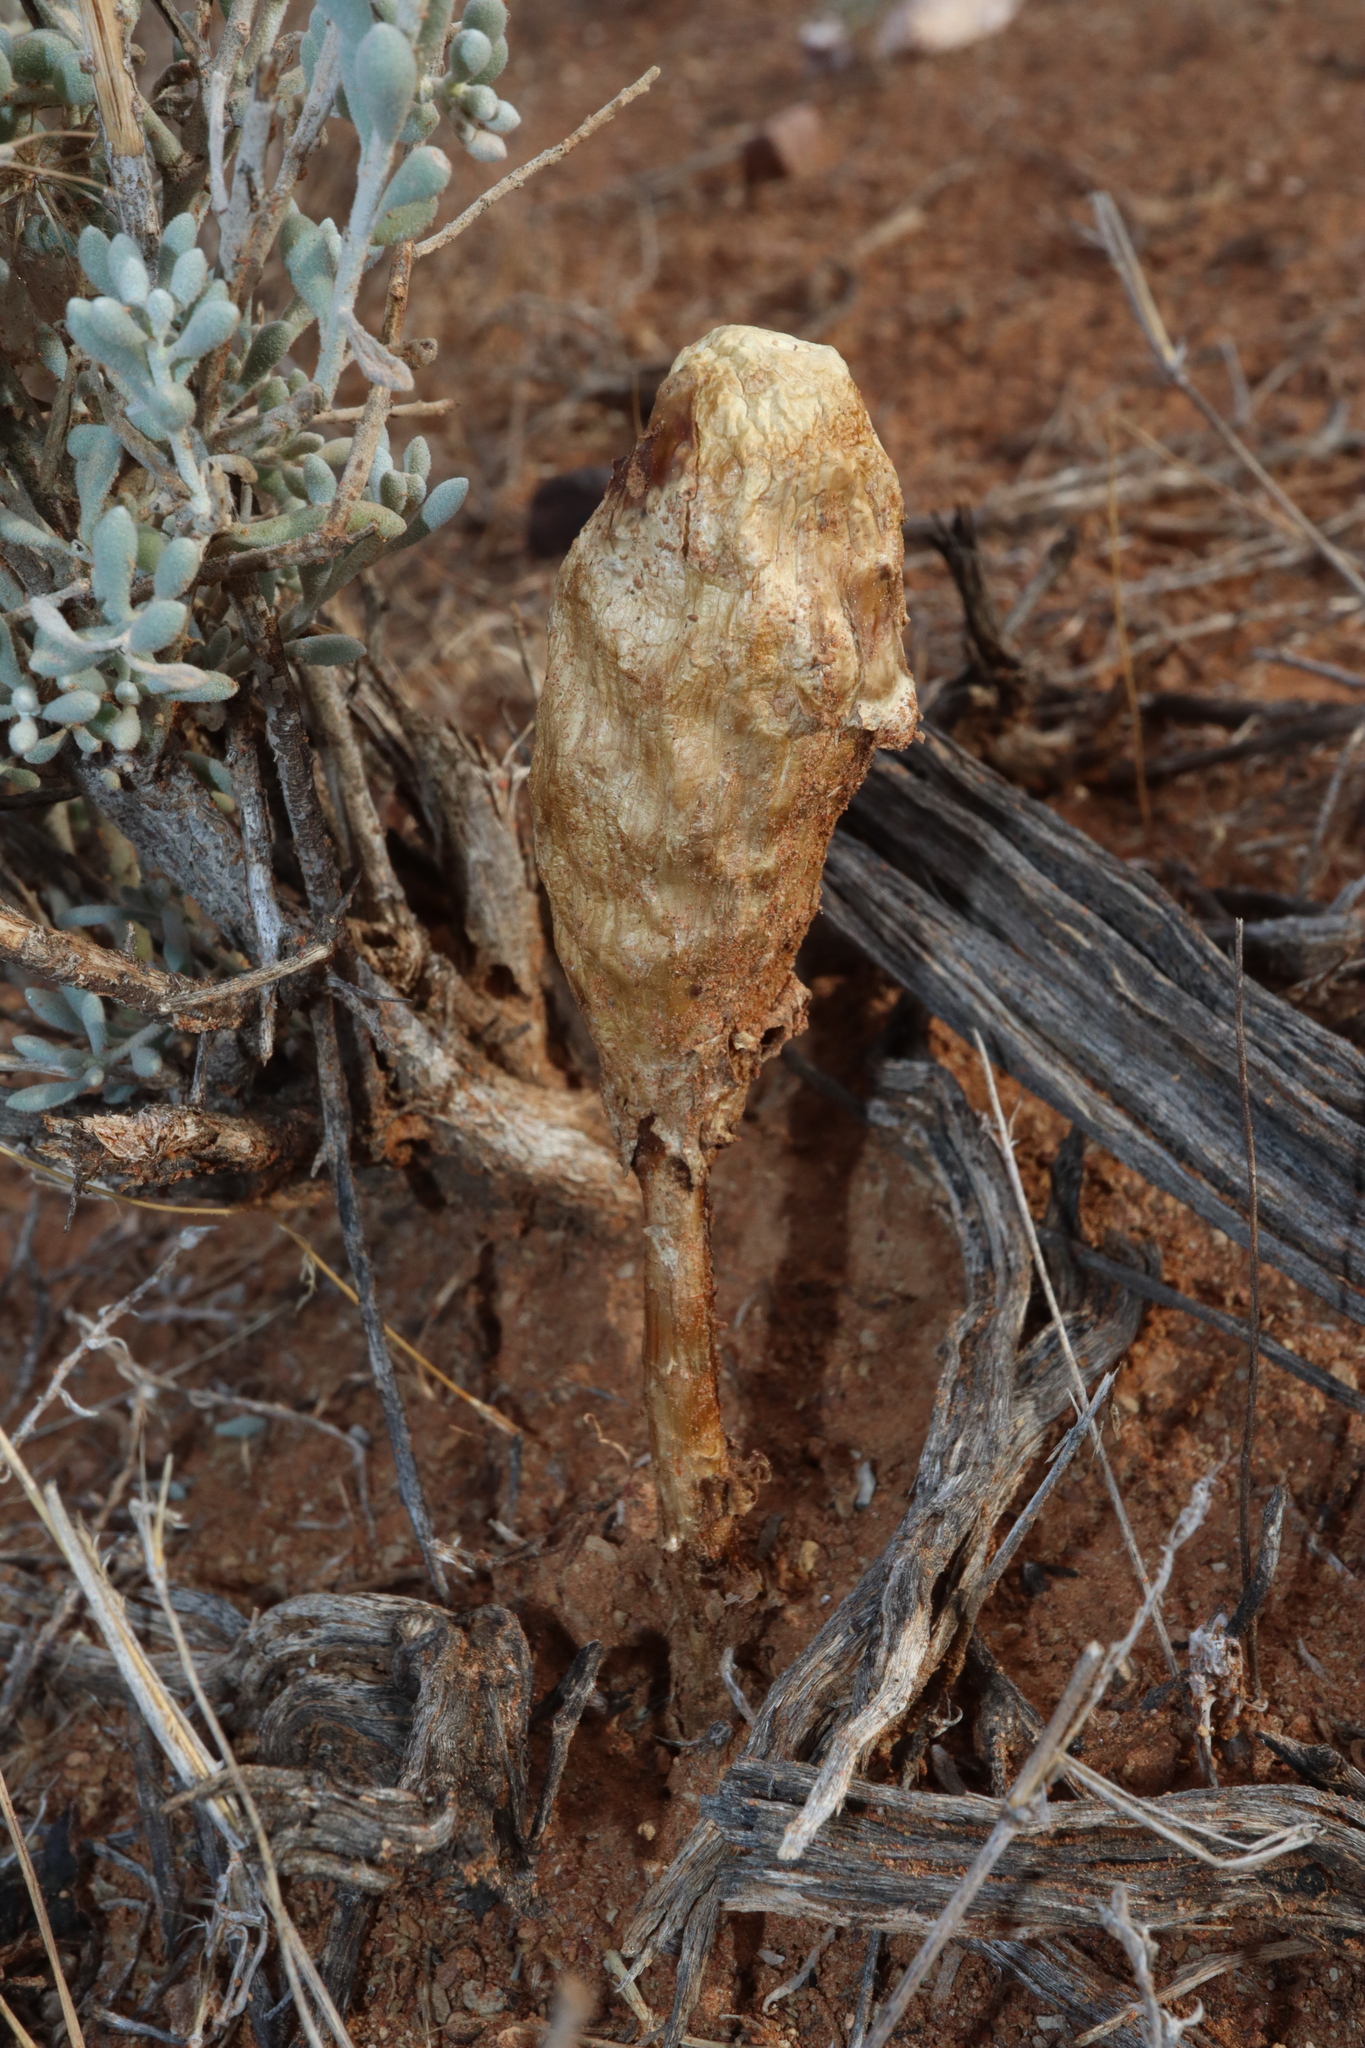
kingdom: Fungi
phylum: Basidiomycota
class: Agaricomycetes
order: Agaricales
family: Agaricaceae
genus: Podaxis
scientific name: Podaxis pistillaris
